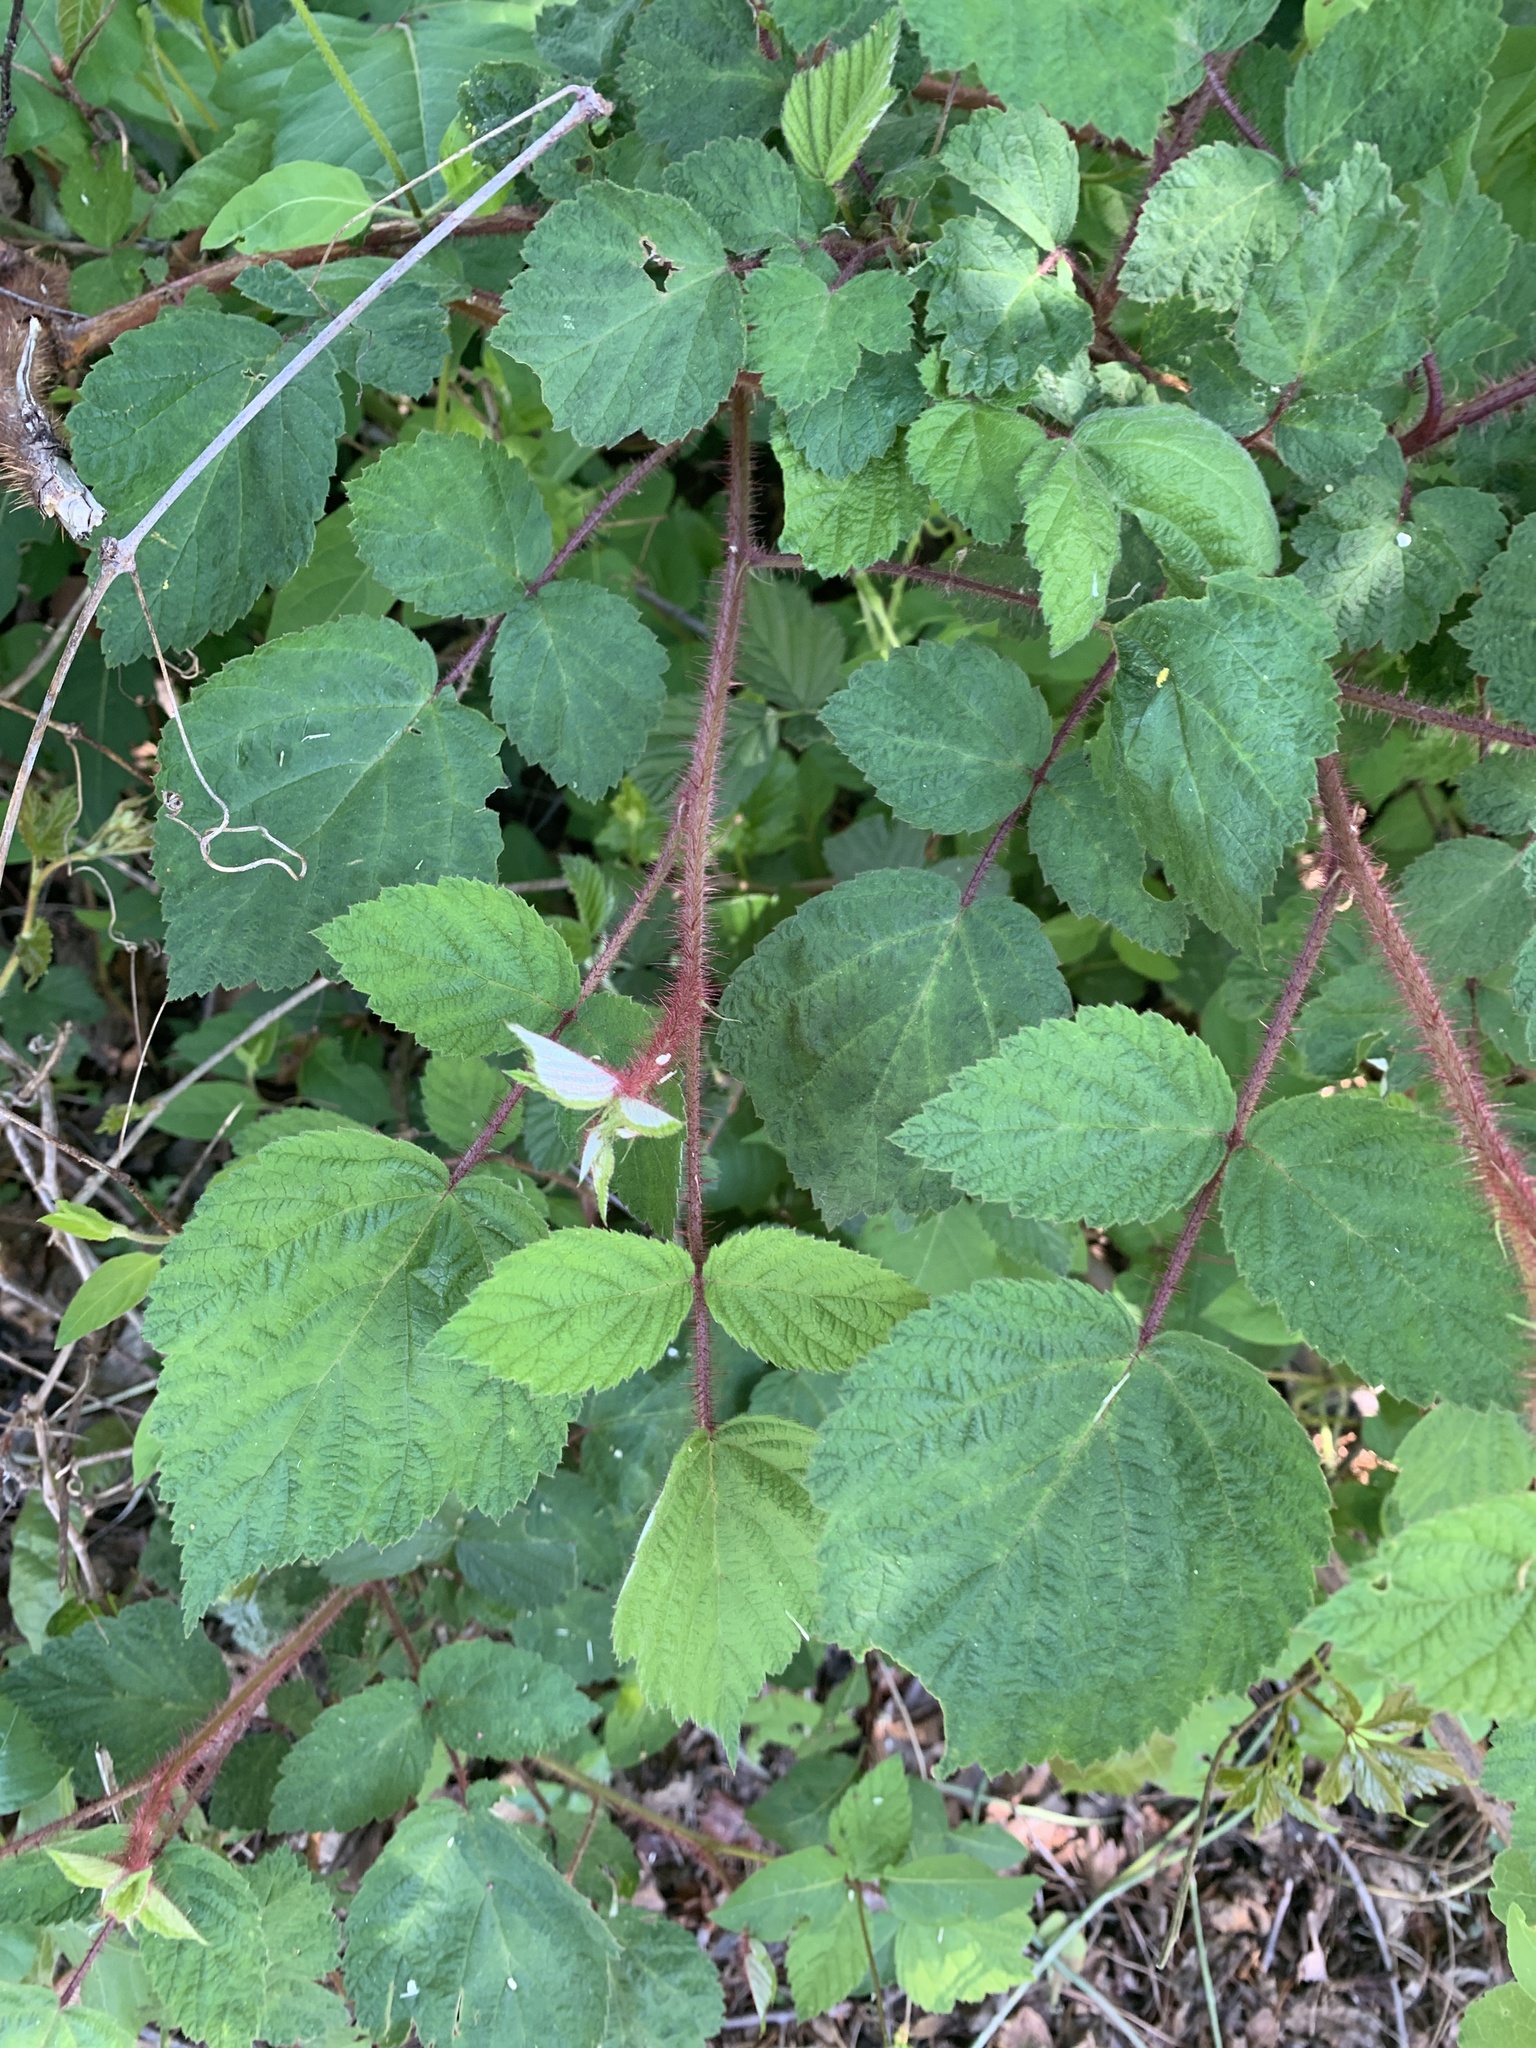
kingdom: Plantae
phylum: Tracheophyta
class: Magnoliopsida
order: Rosales
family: Rosaceae
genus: Rubus
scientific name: Rubus phoenicolasius
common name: Japanese wineberry
